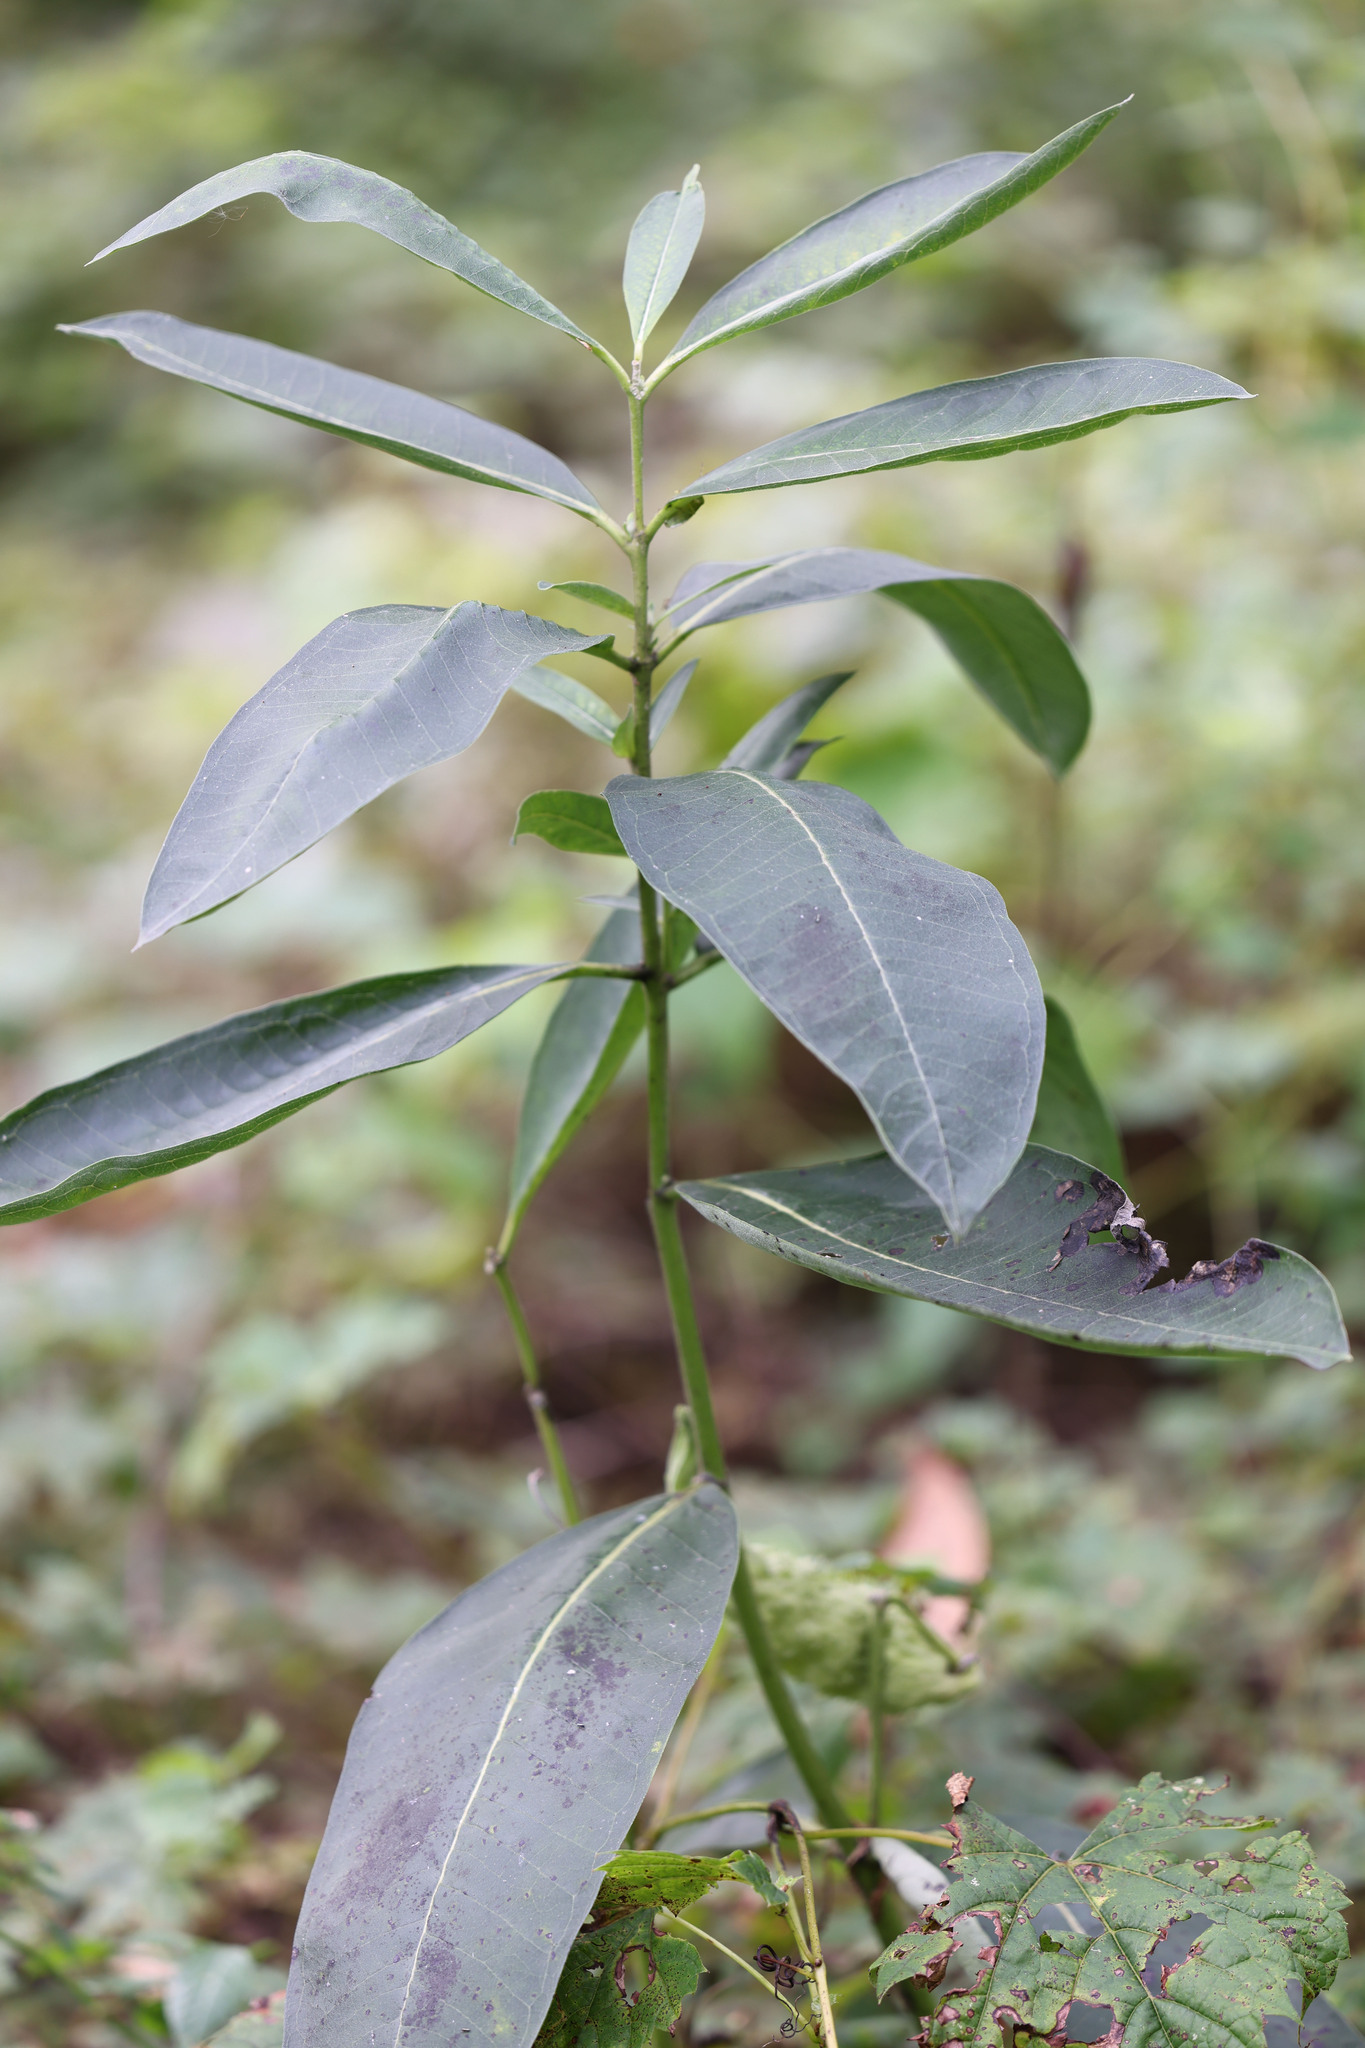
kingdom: Plantae
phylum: Tracheophyta
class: Magnoliopsida
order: Gentianales
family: Apocynaceae
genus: Asclepias
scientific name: Asclepias syriaca
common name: Common milkweed
